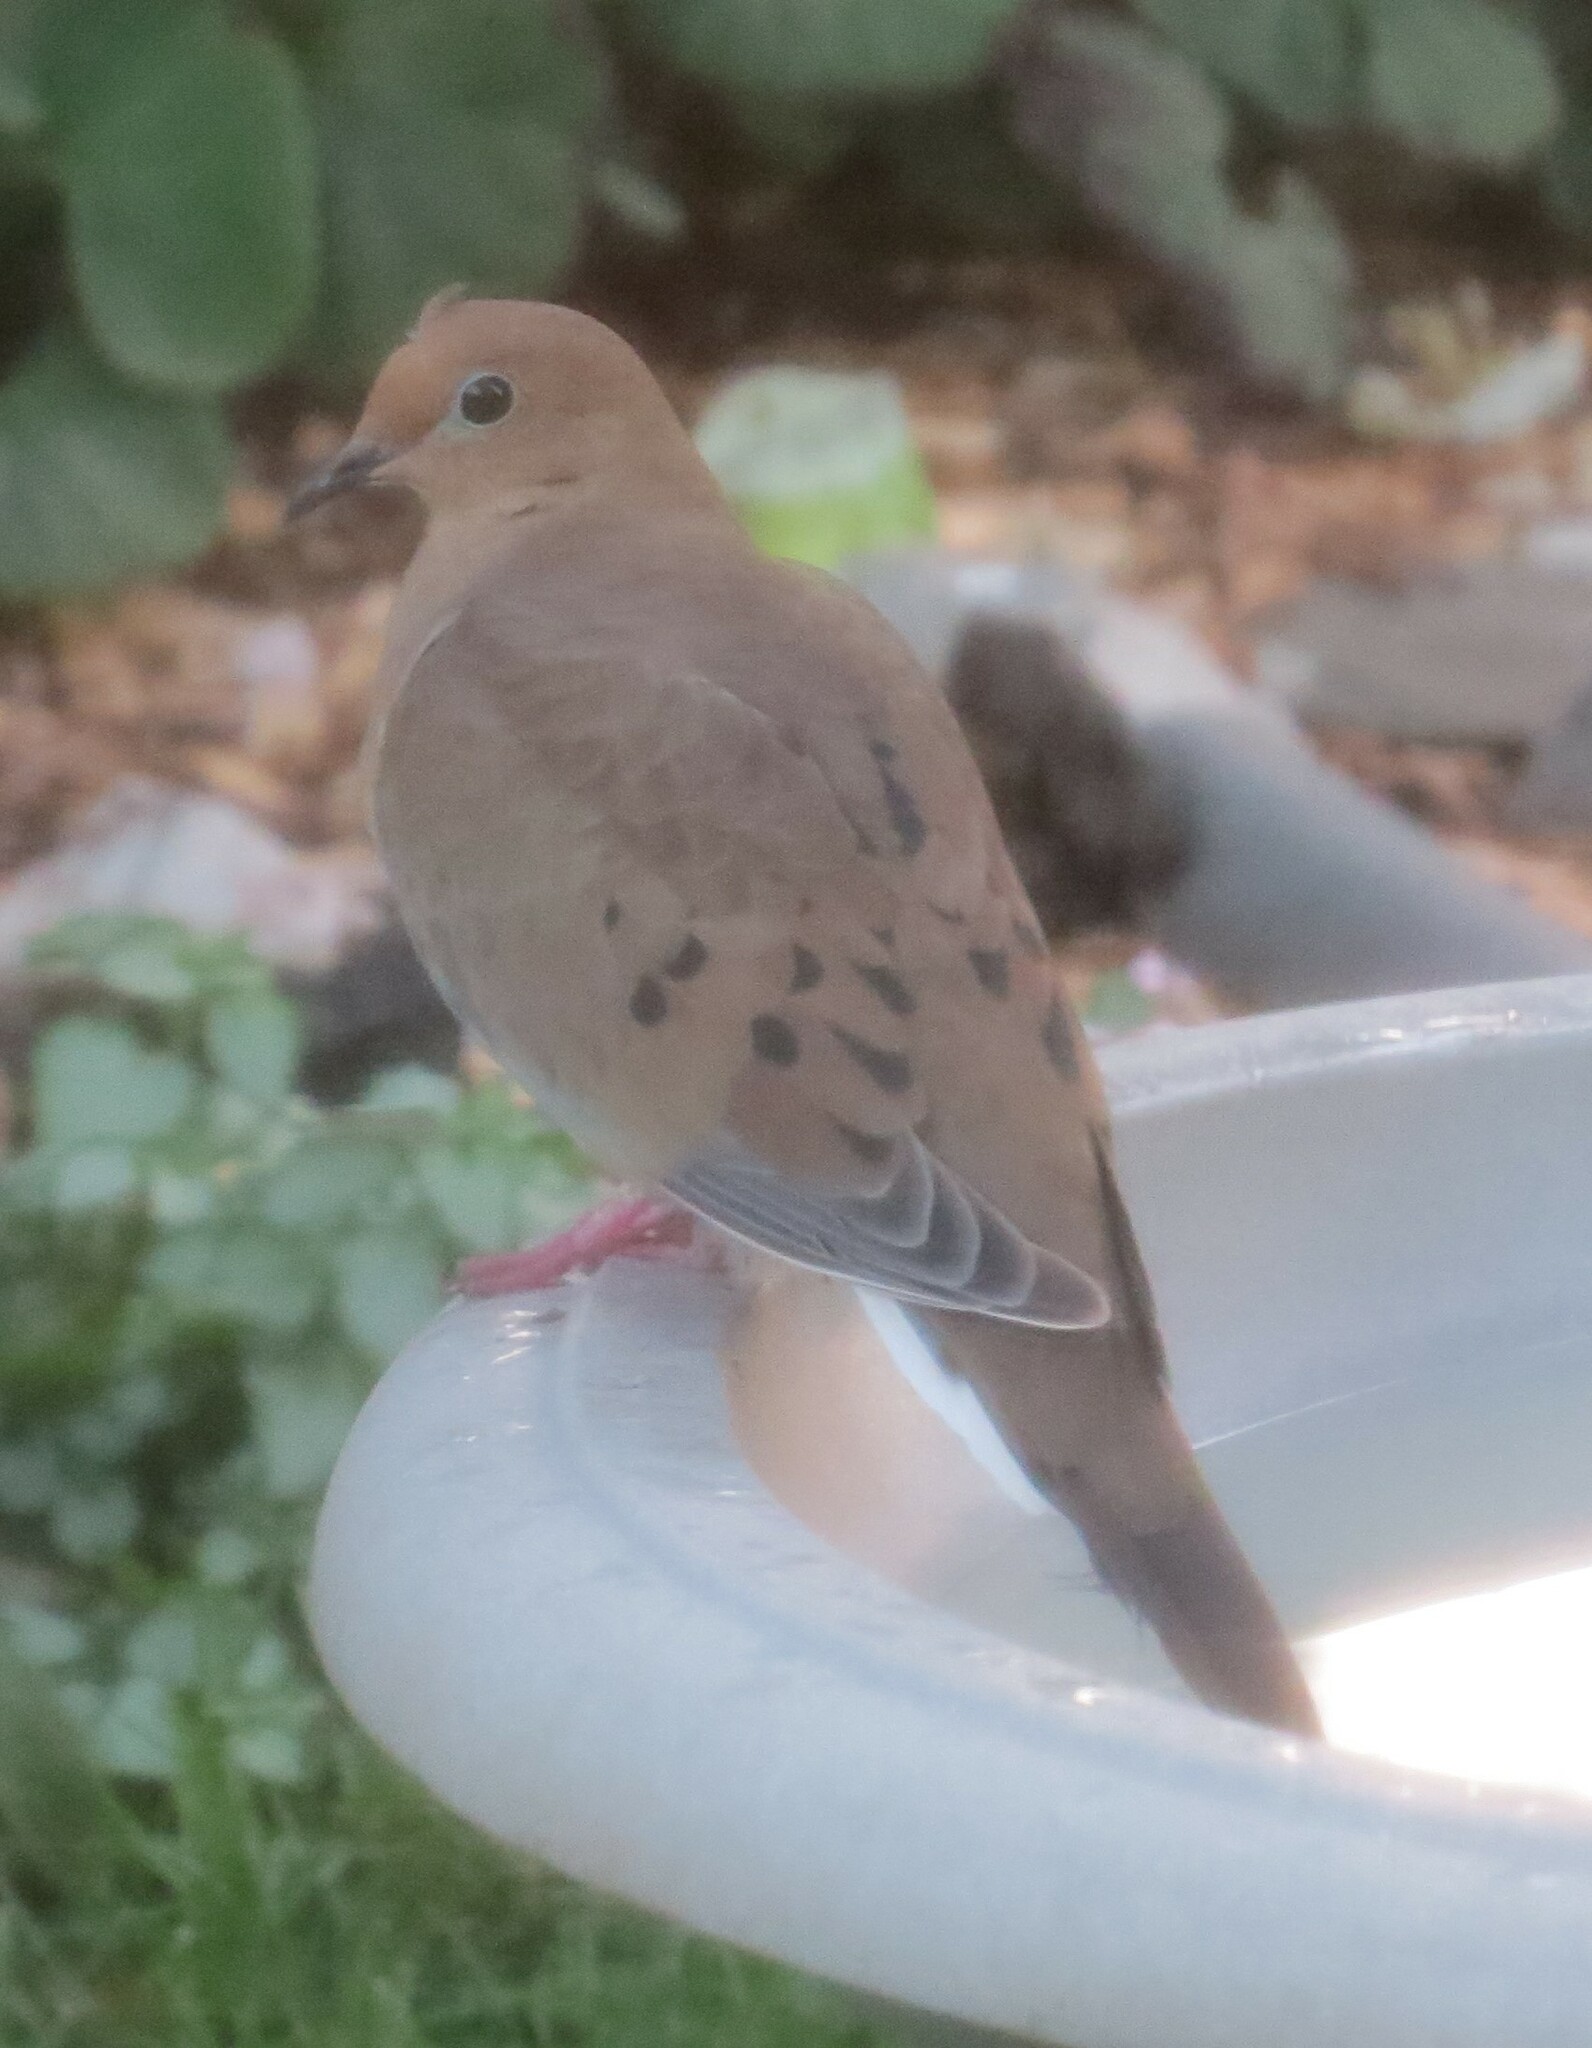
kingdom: Animalia
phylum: Chordata
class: Aves
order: Columbiformes
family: Columbidae
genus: Zenaida
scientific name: Zenaida macroura
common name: Mourning dove
